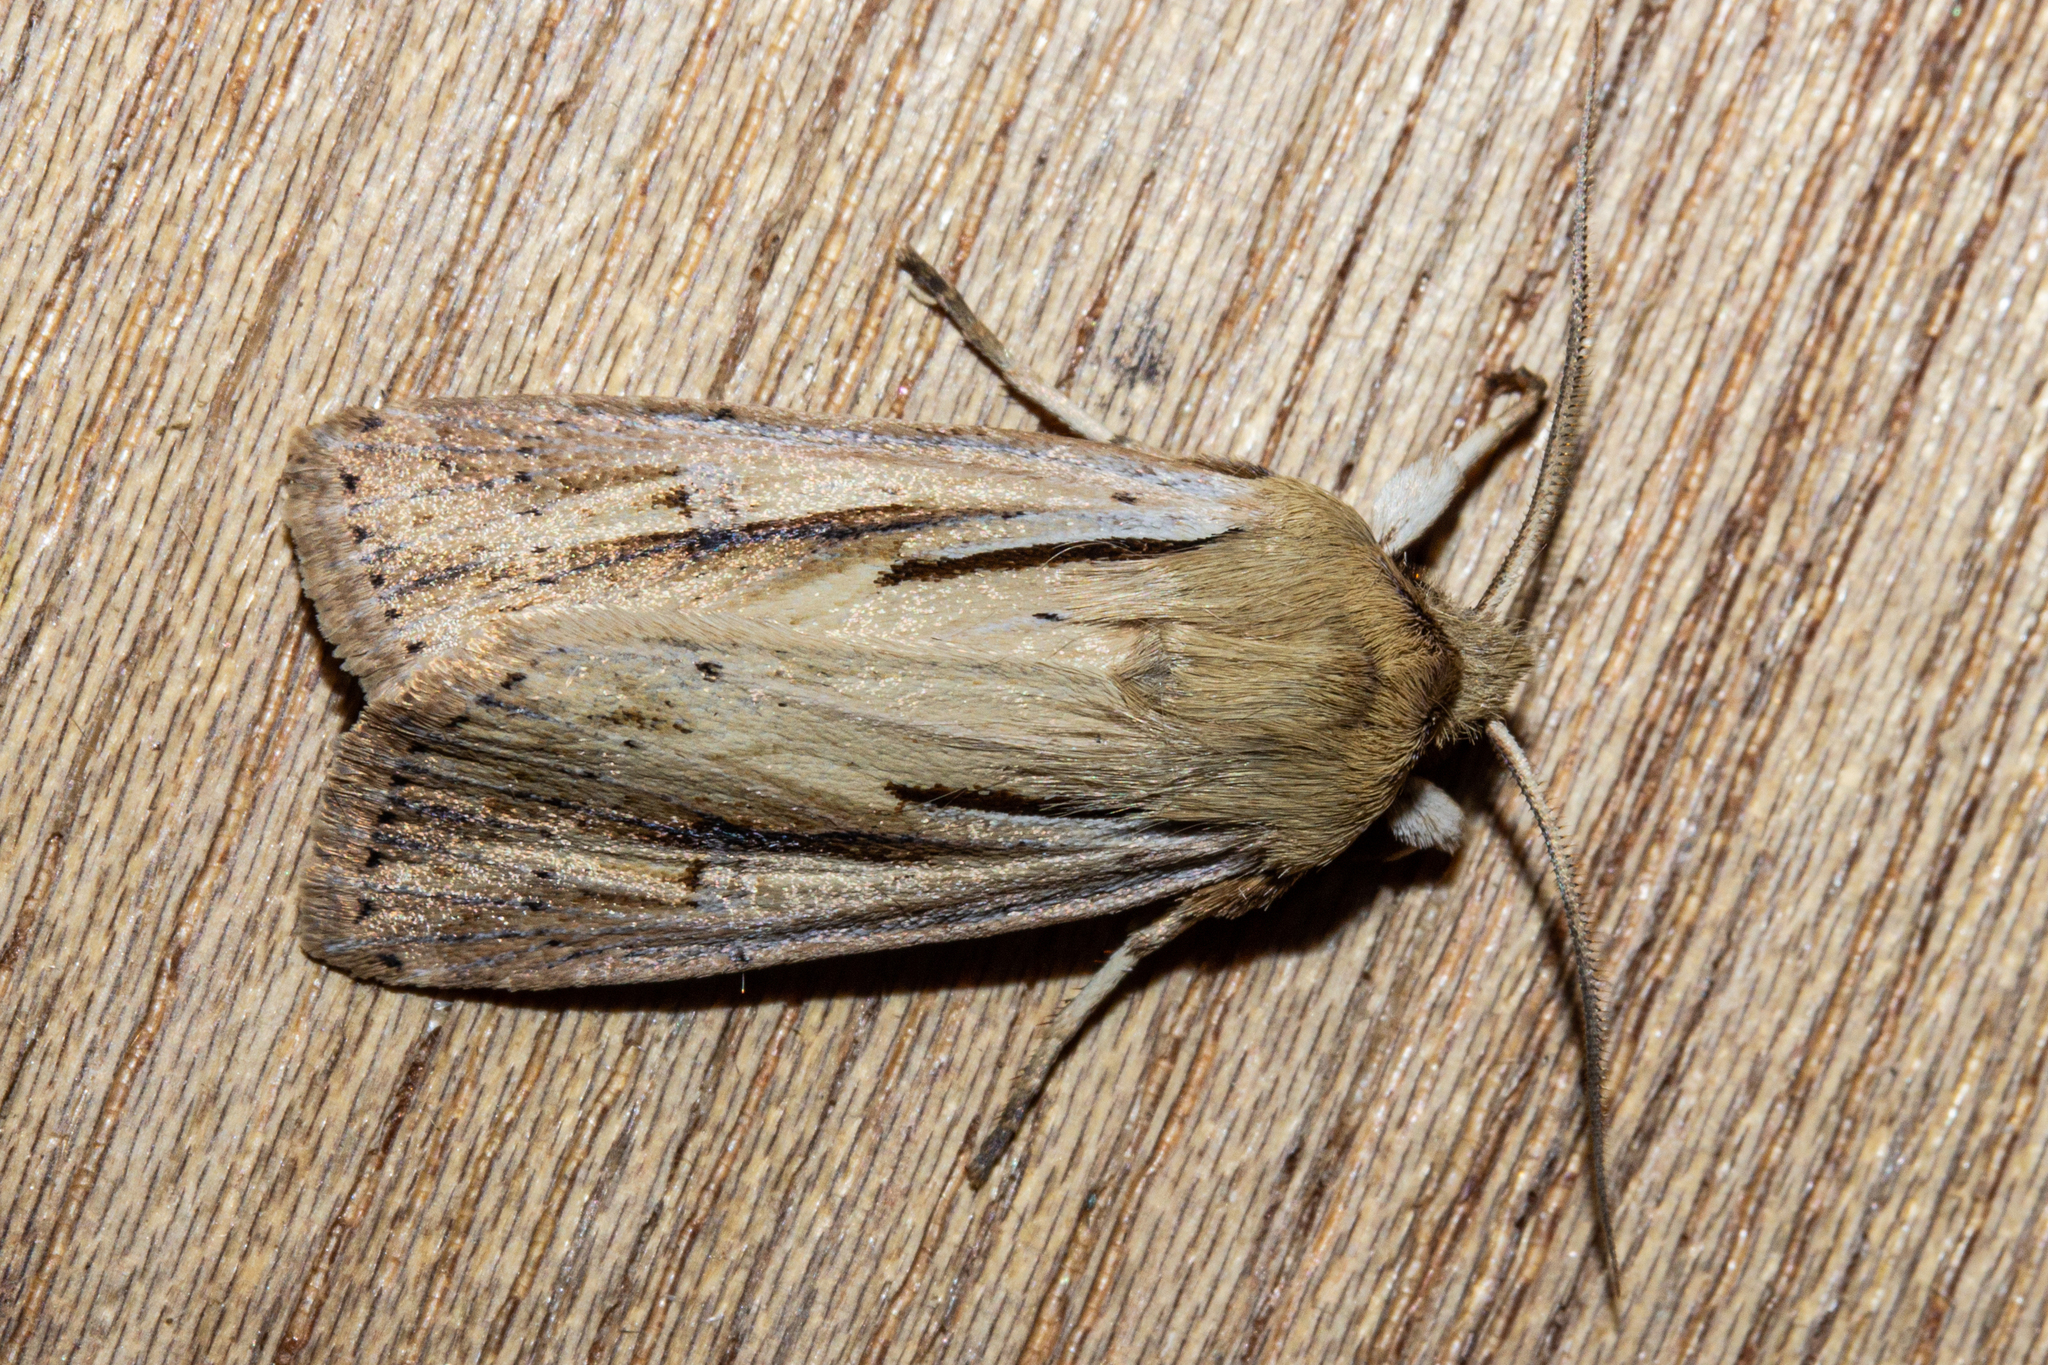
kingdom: Animalia
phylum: Arthropoda
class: Insecta
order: Lepidoptera
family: Noctuidae
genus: Ichneutica
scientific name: Ichneutica propria
